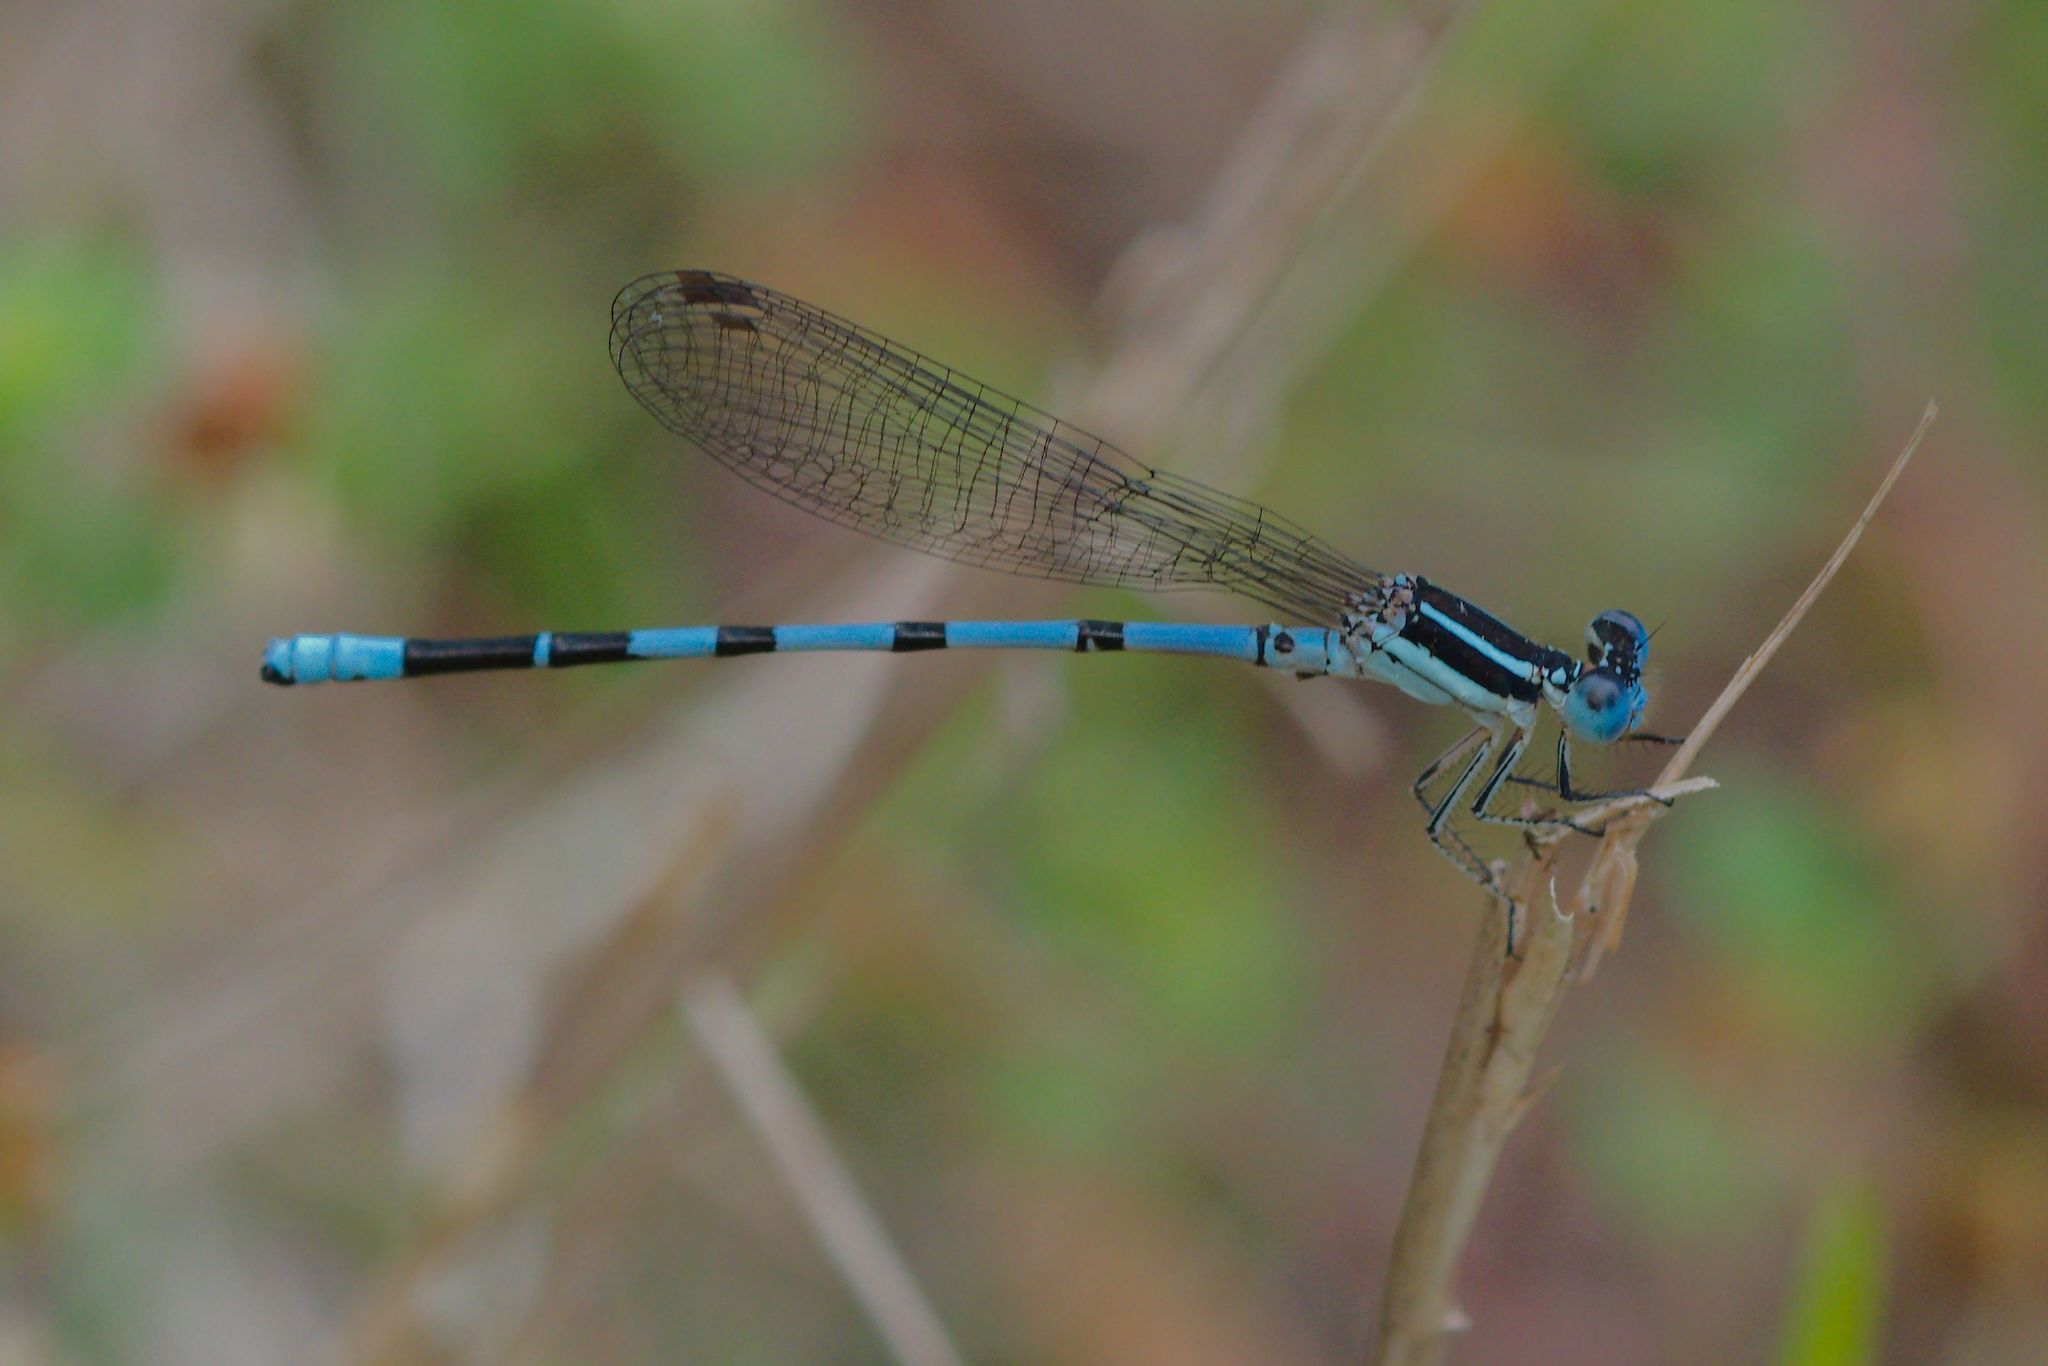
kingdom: Animalia
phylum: Arthropoda
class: Insecta
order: Odonata
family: Coenagrionidae
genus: Argia
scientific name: Argia bipunctulata
